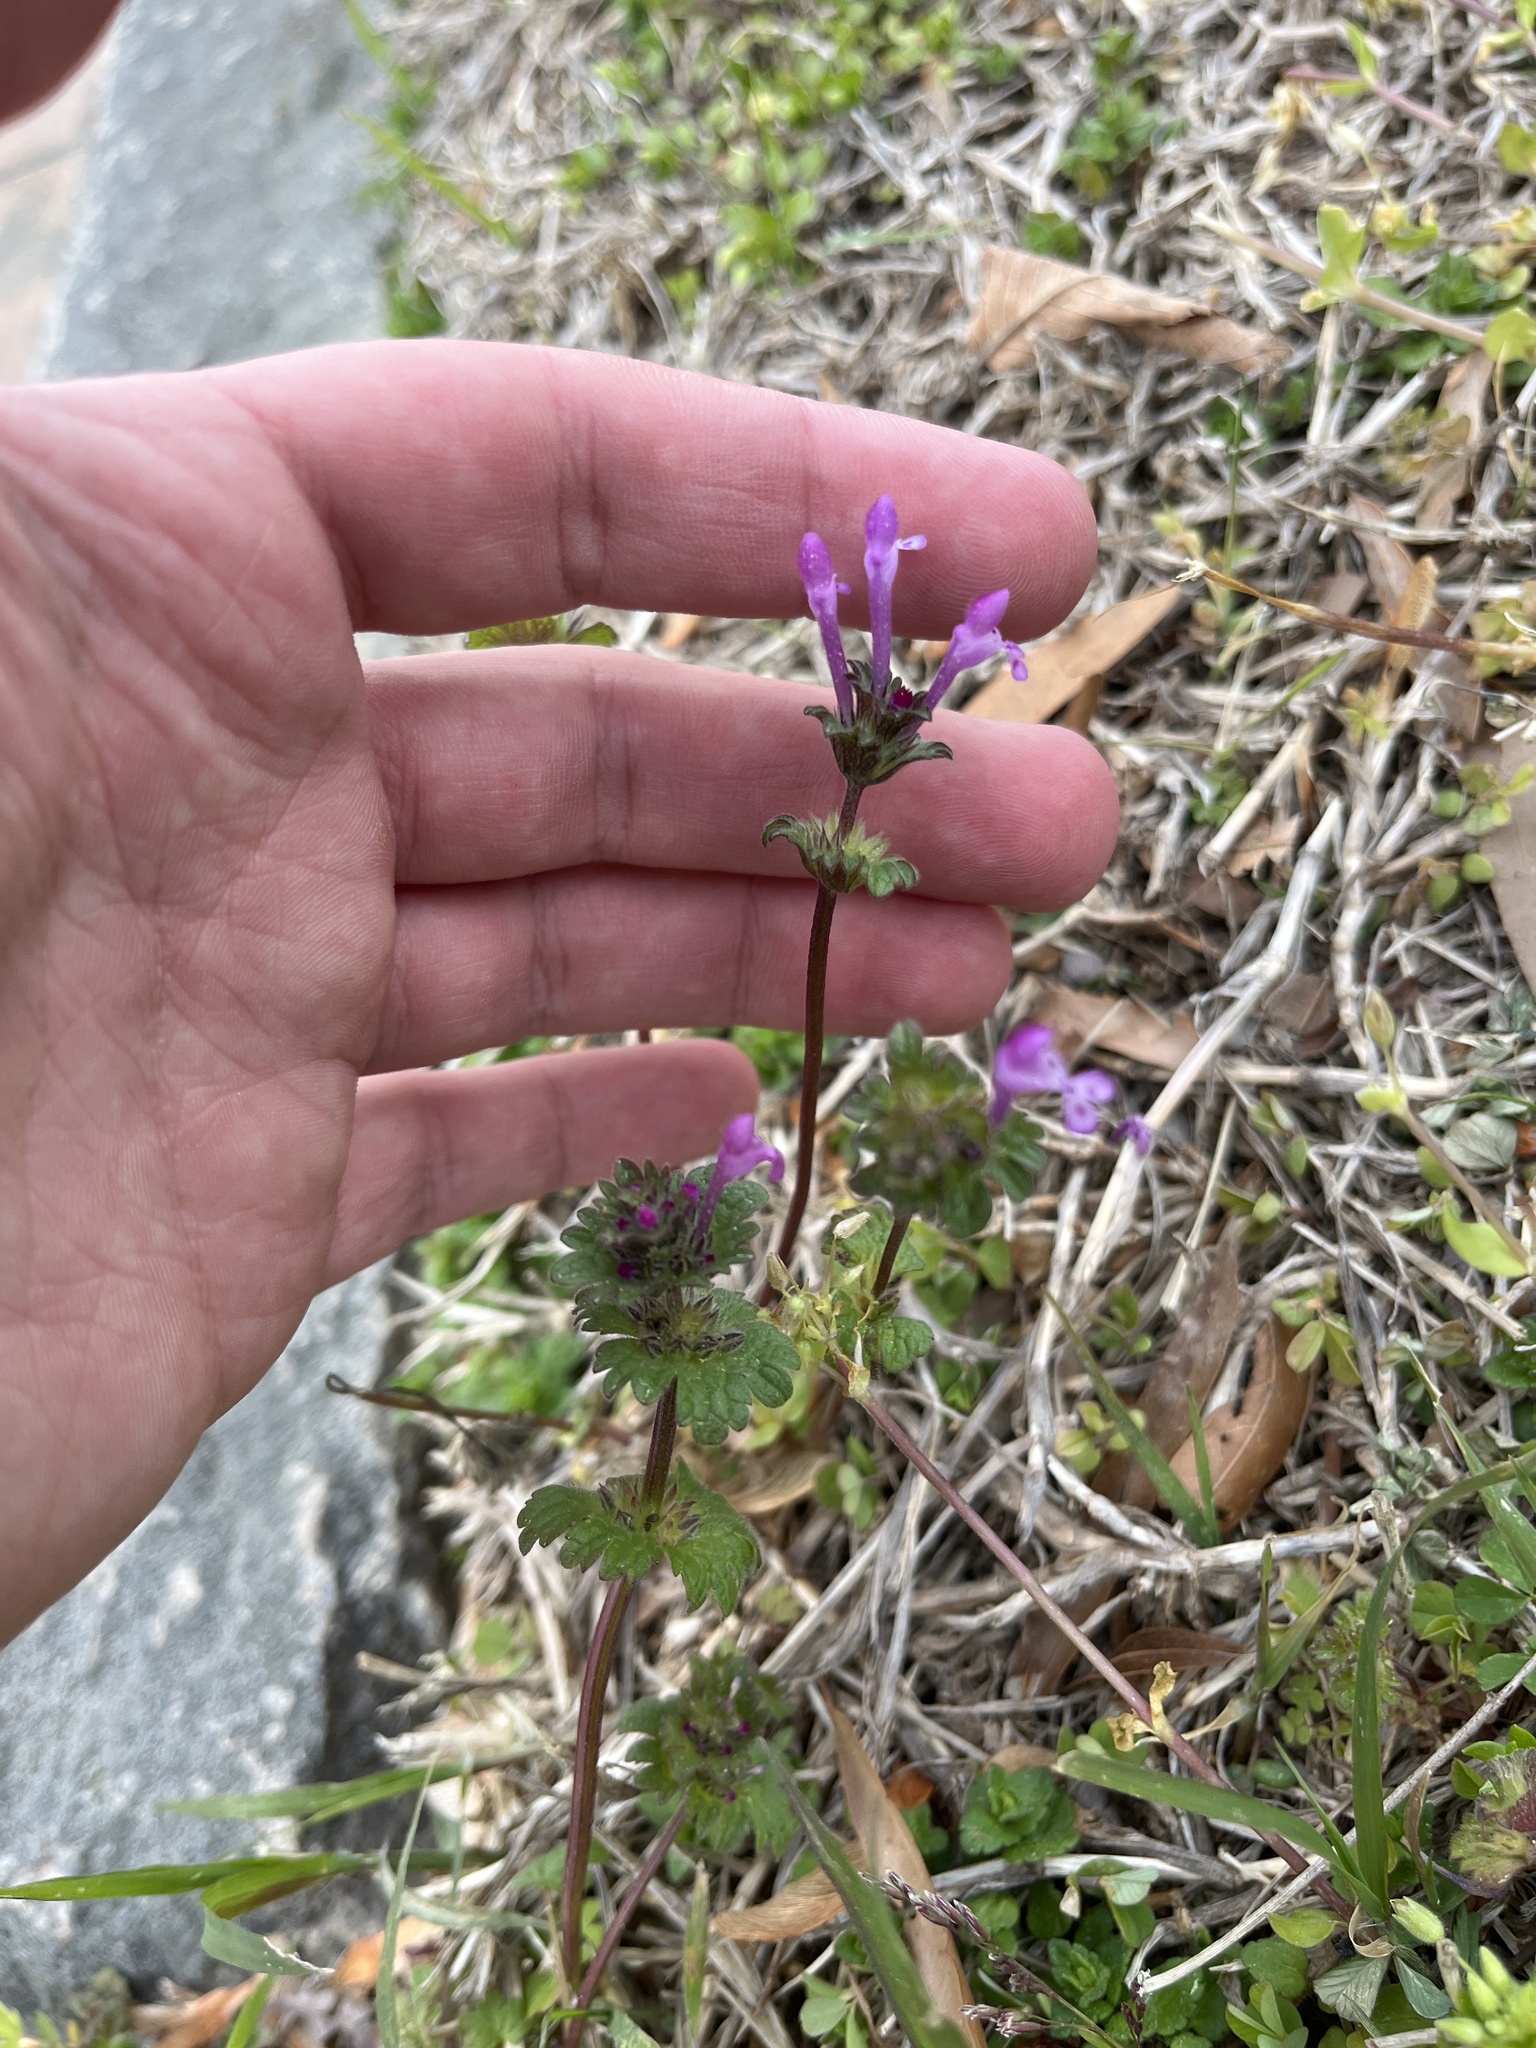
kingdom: Plantae
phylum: Tracheophyta
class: Magnoliopsida
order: Lamiales
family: Lamiaceae
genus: Lamium
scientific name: Lamium amplexicaule
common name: Henbit dead-nettle
